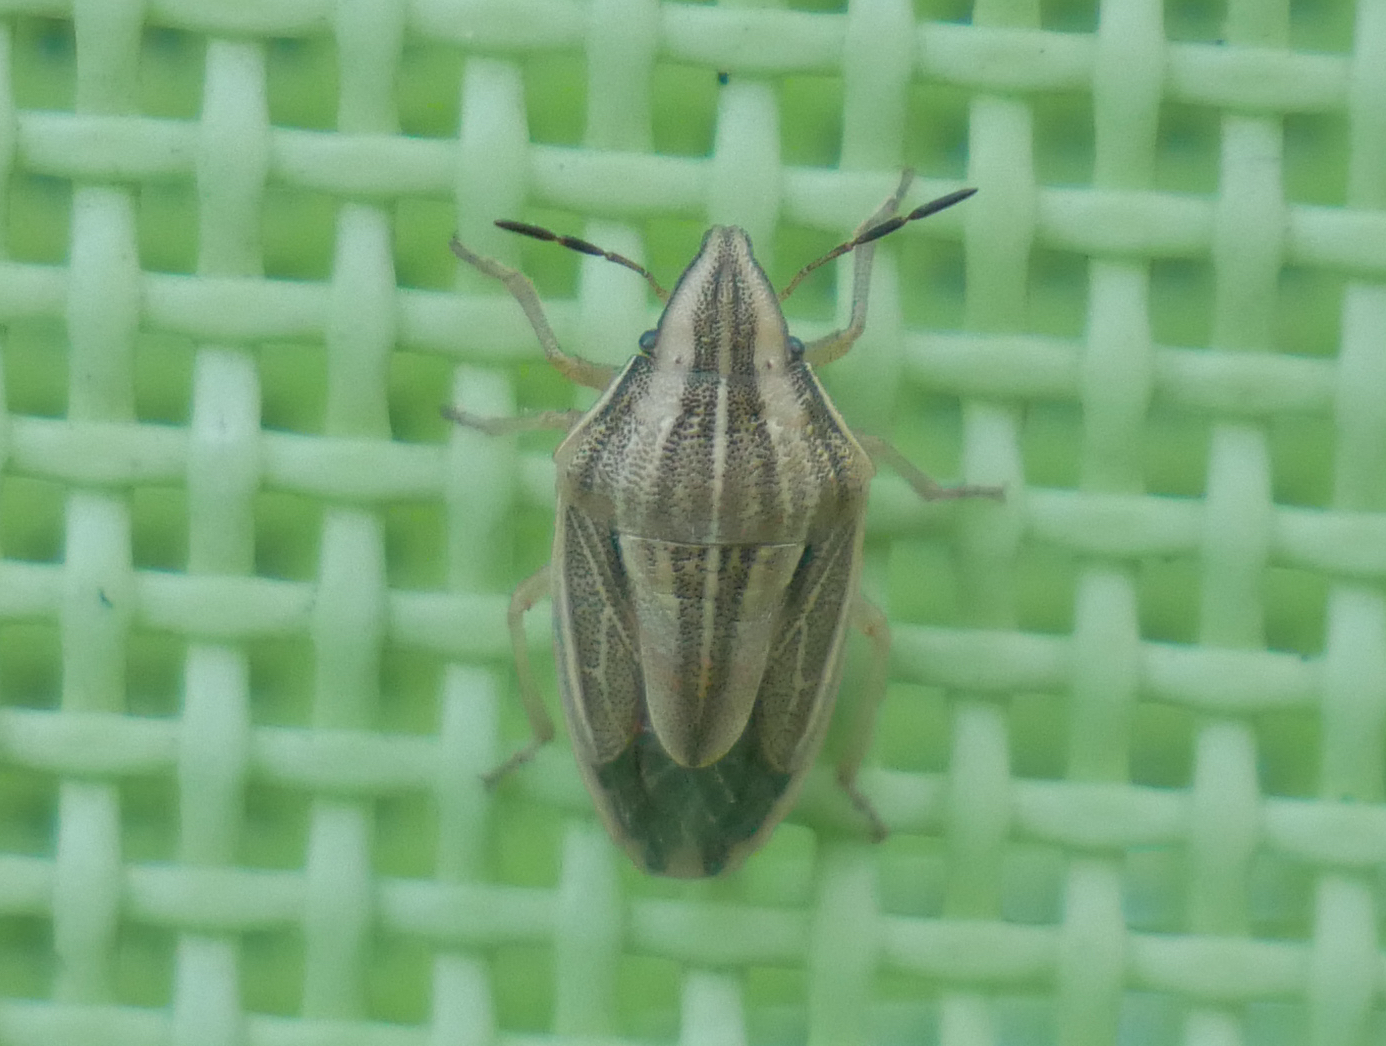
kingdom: Animalia
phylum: Arthropoda
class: Insecta
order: Hemiptera
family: Pentatomidae
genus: Aelia
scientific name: Aelia acuminata
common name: Bishop's mitre
